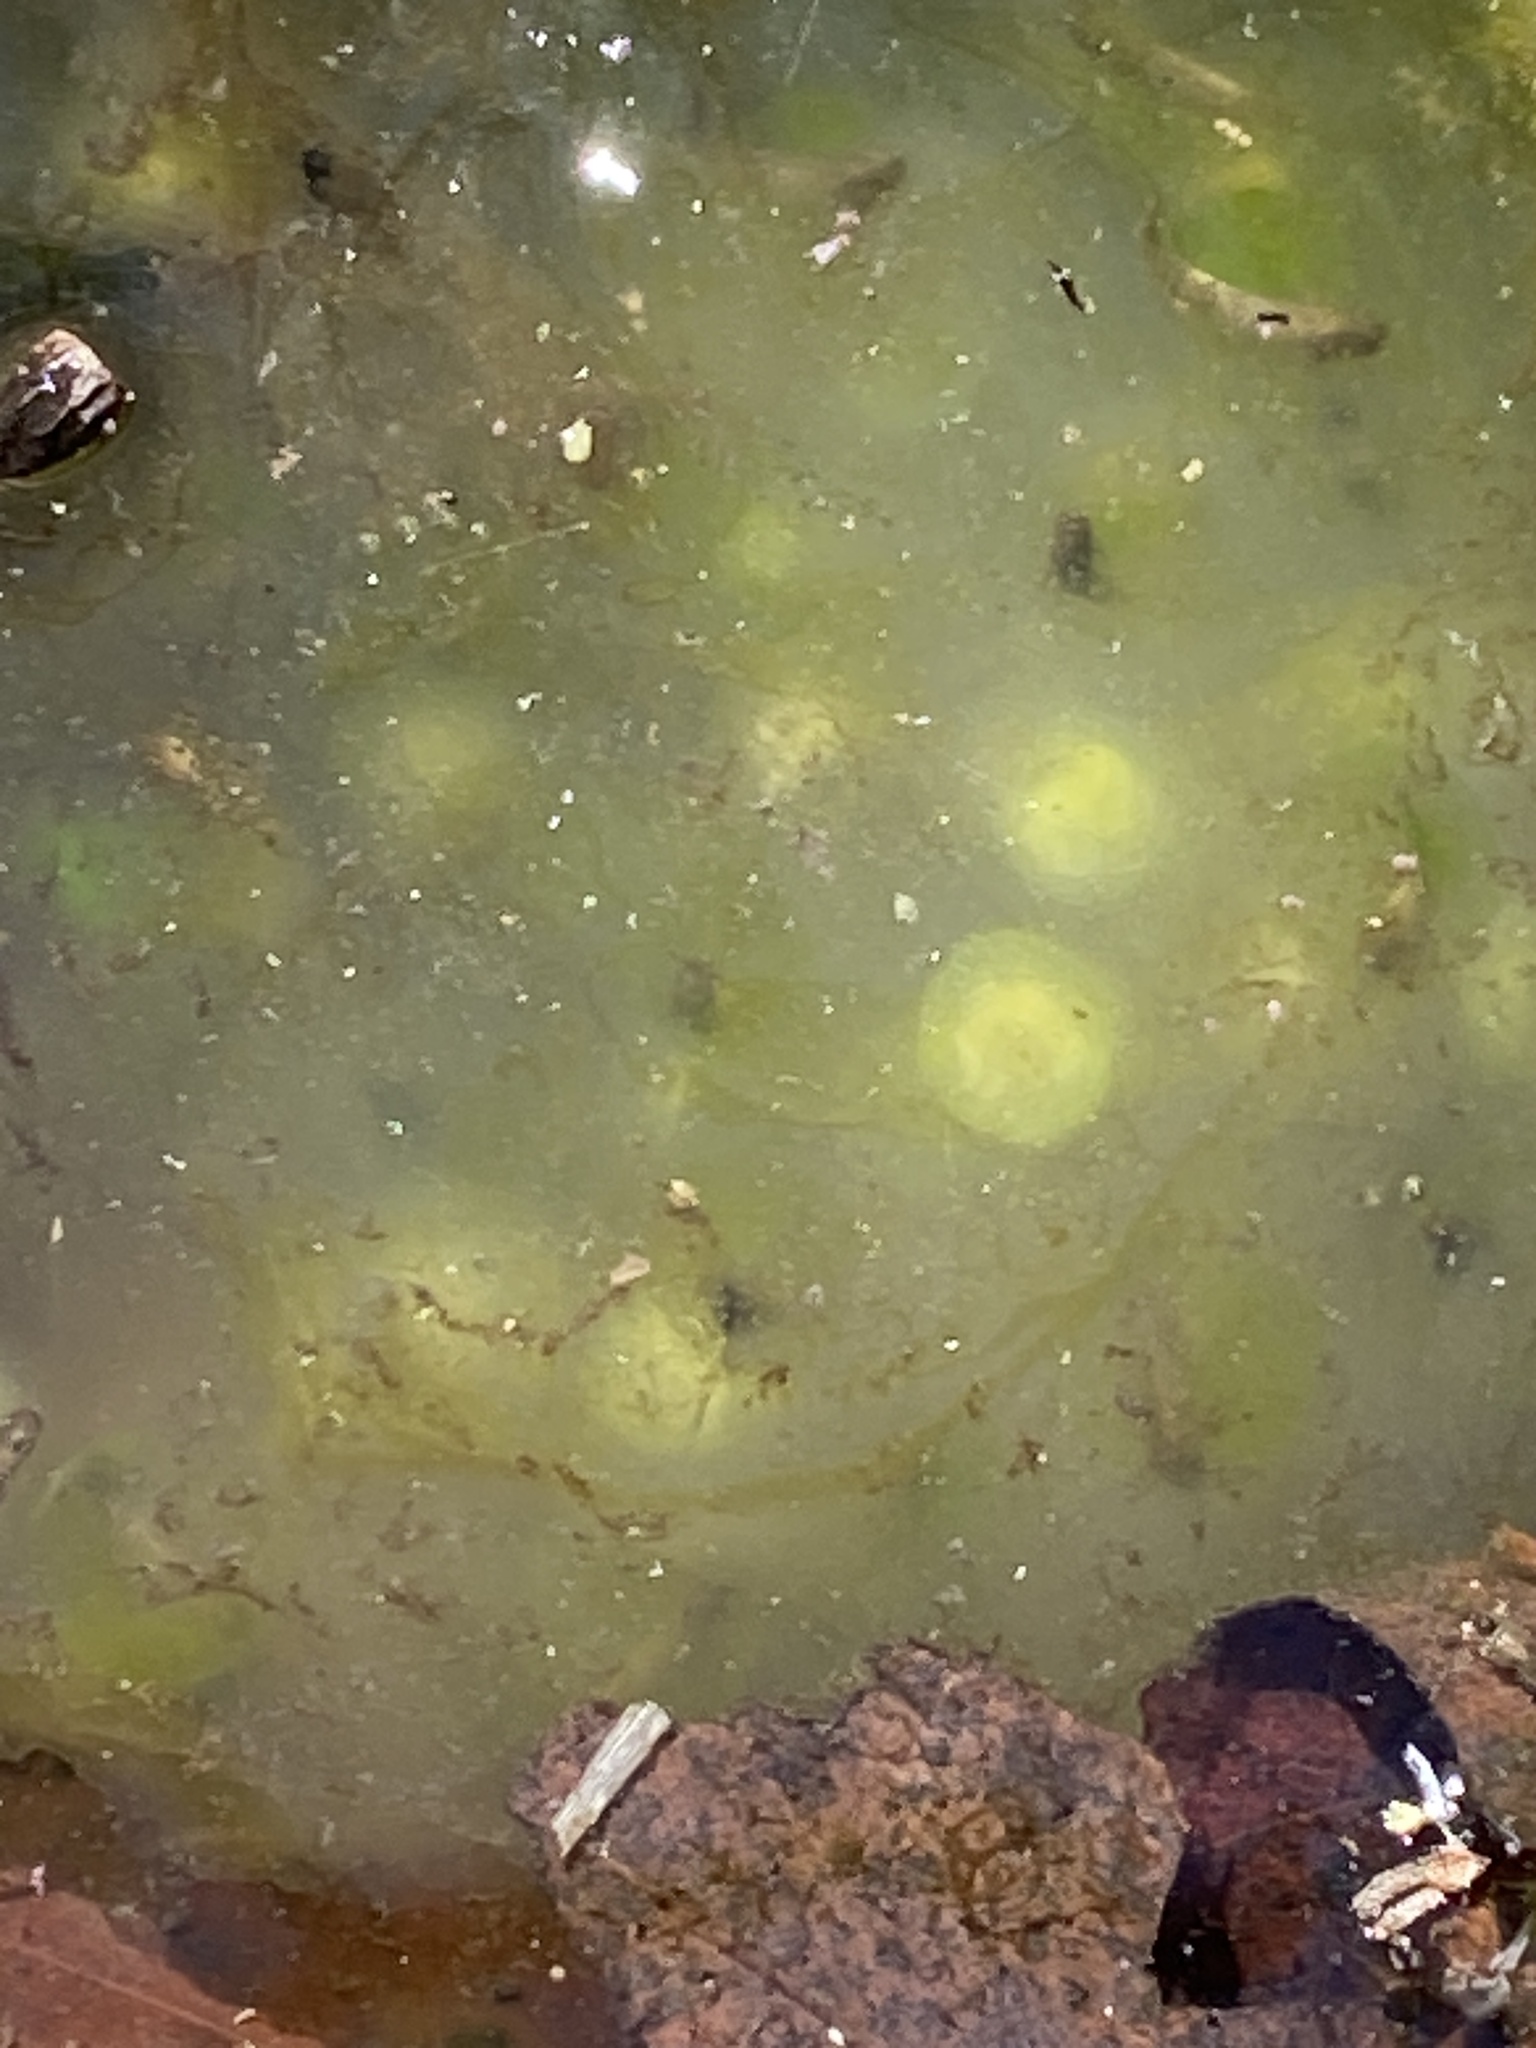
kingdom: Animalia
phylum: Chordata
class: Amphibia
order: Caudata
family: Ambystomatidae
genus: Ambystoma
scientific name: Ambystoma maculatum
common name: Spotted salamander
